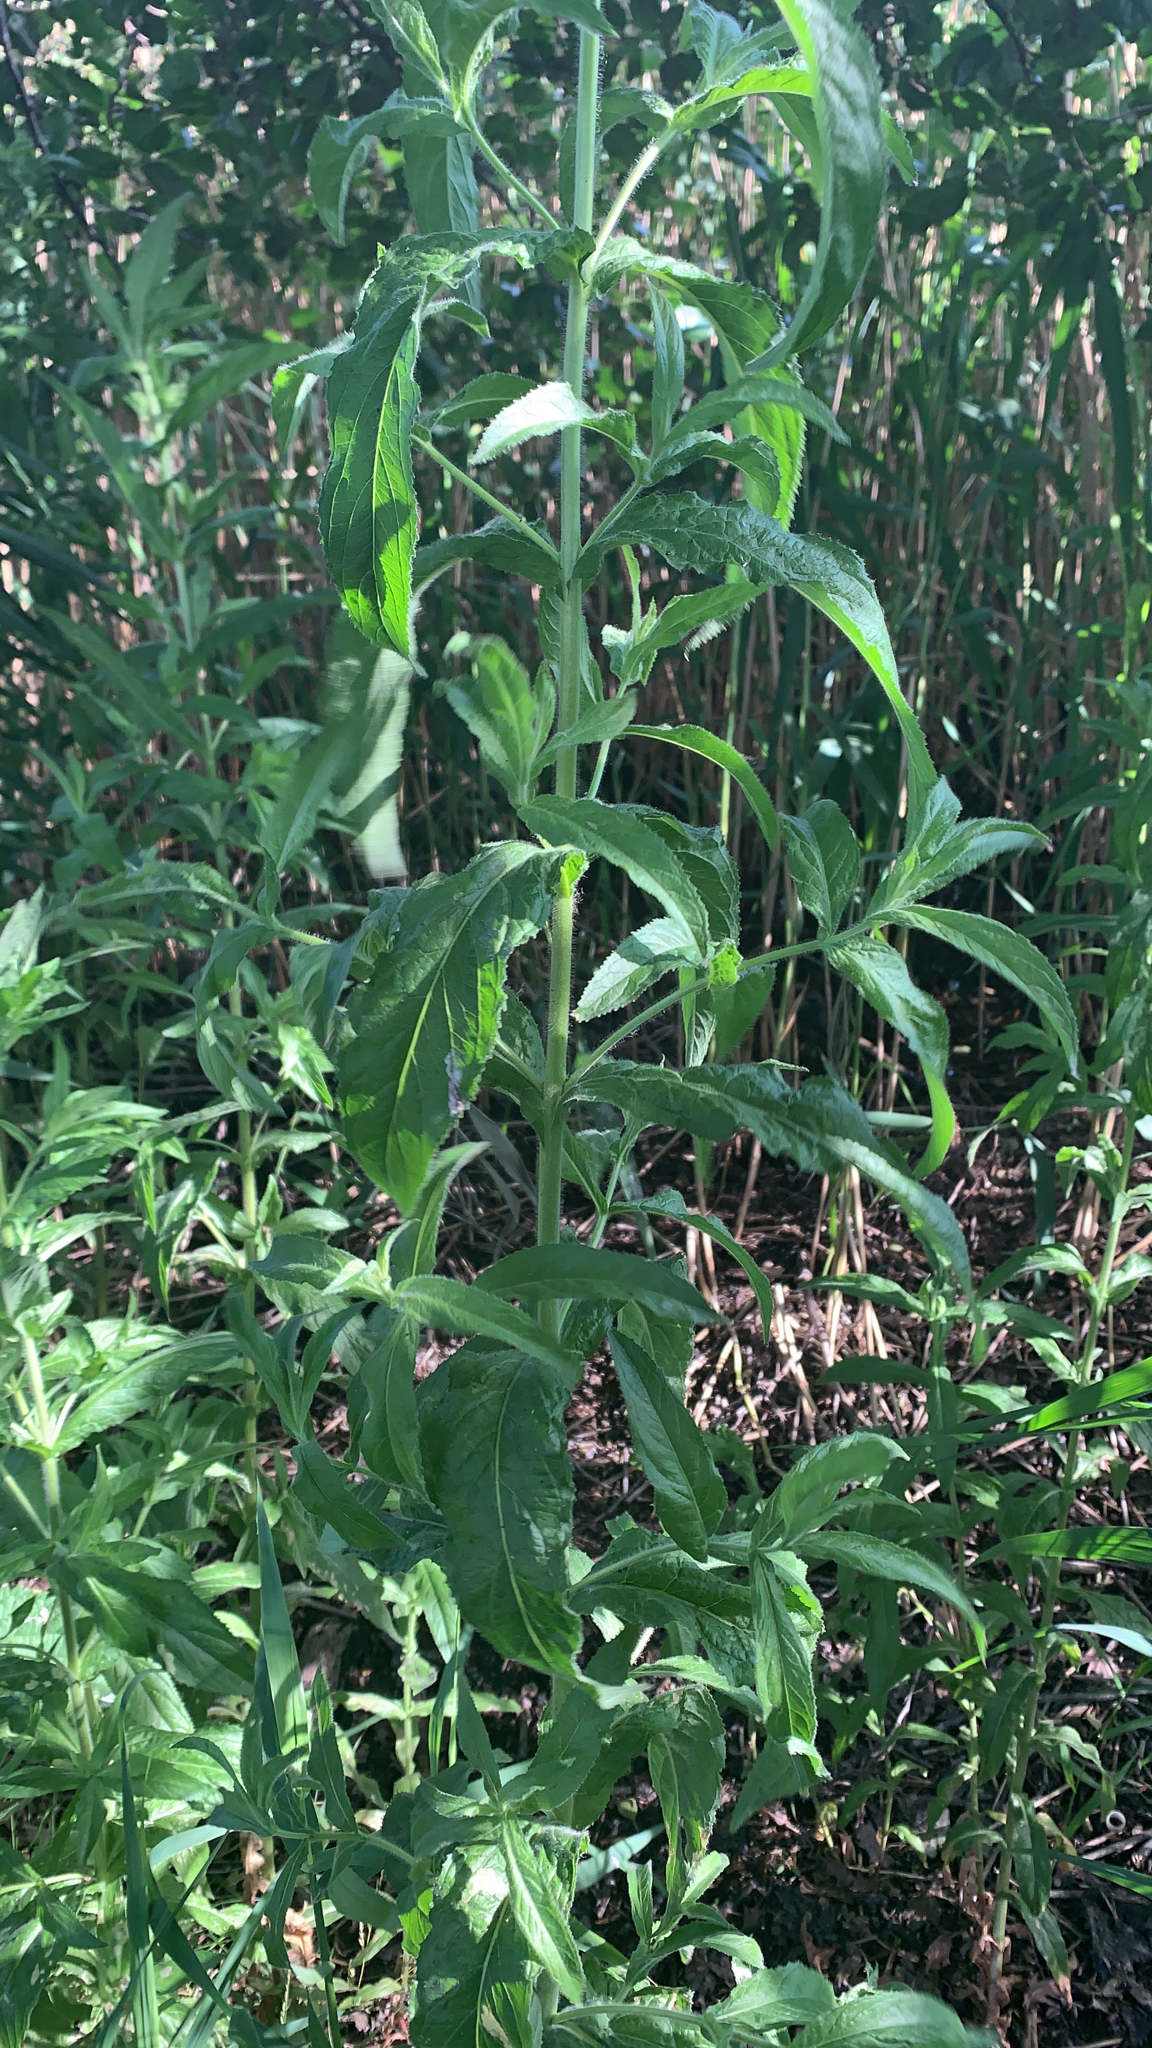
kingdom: Plantae
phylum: Tracheophyta
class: Magnoliopsida
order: Myrtales
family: Onagraceae
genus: Epilobium
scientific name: Epilobium hirsutum
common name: Great willowherb
